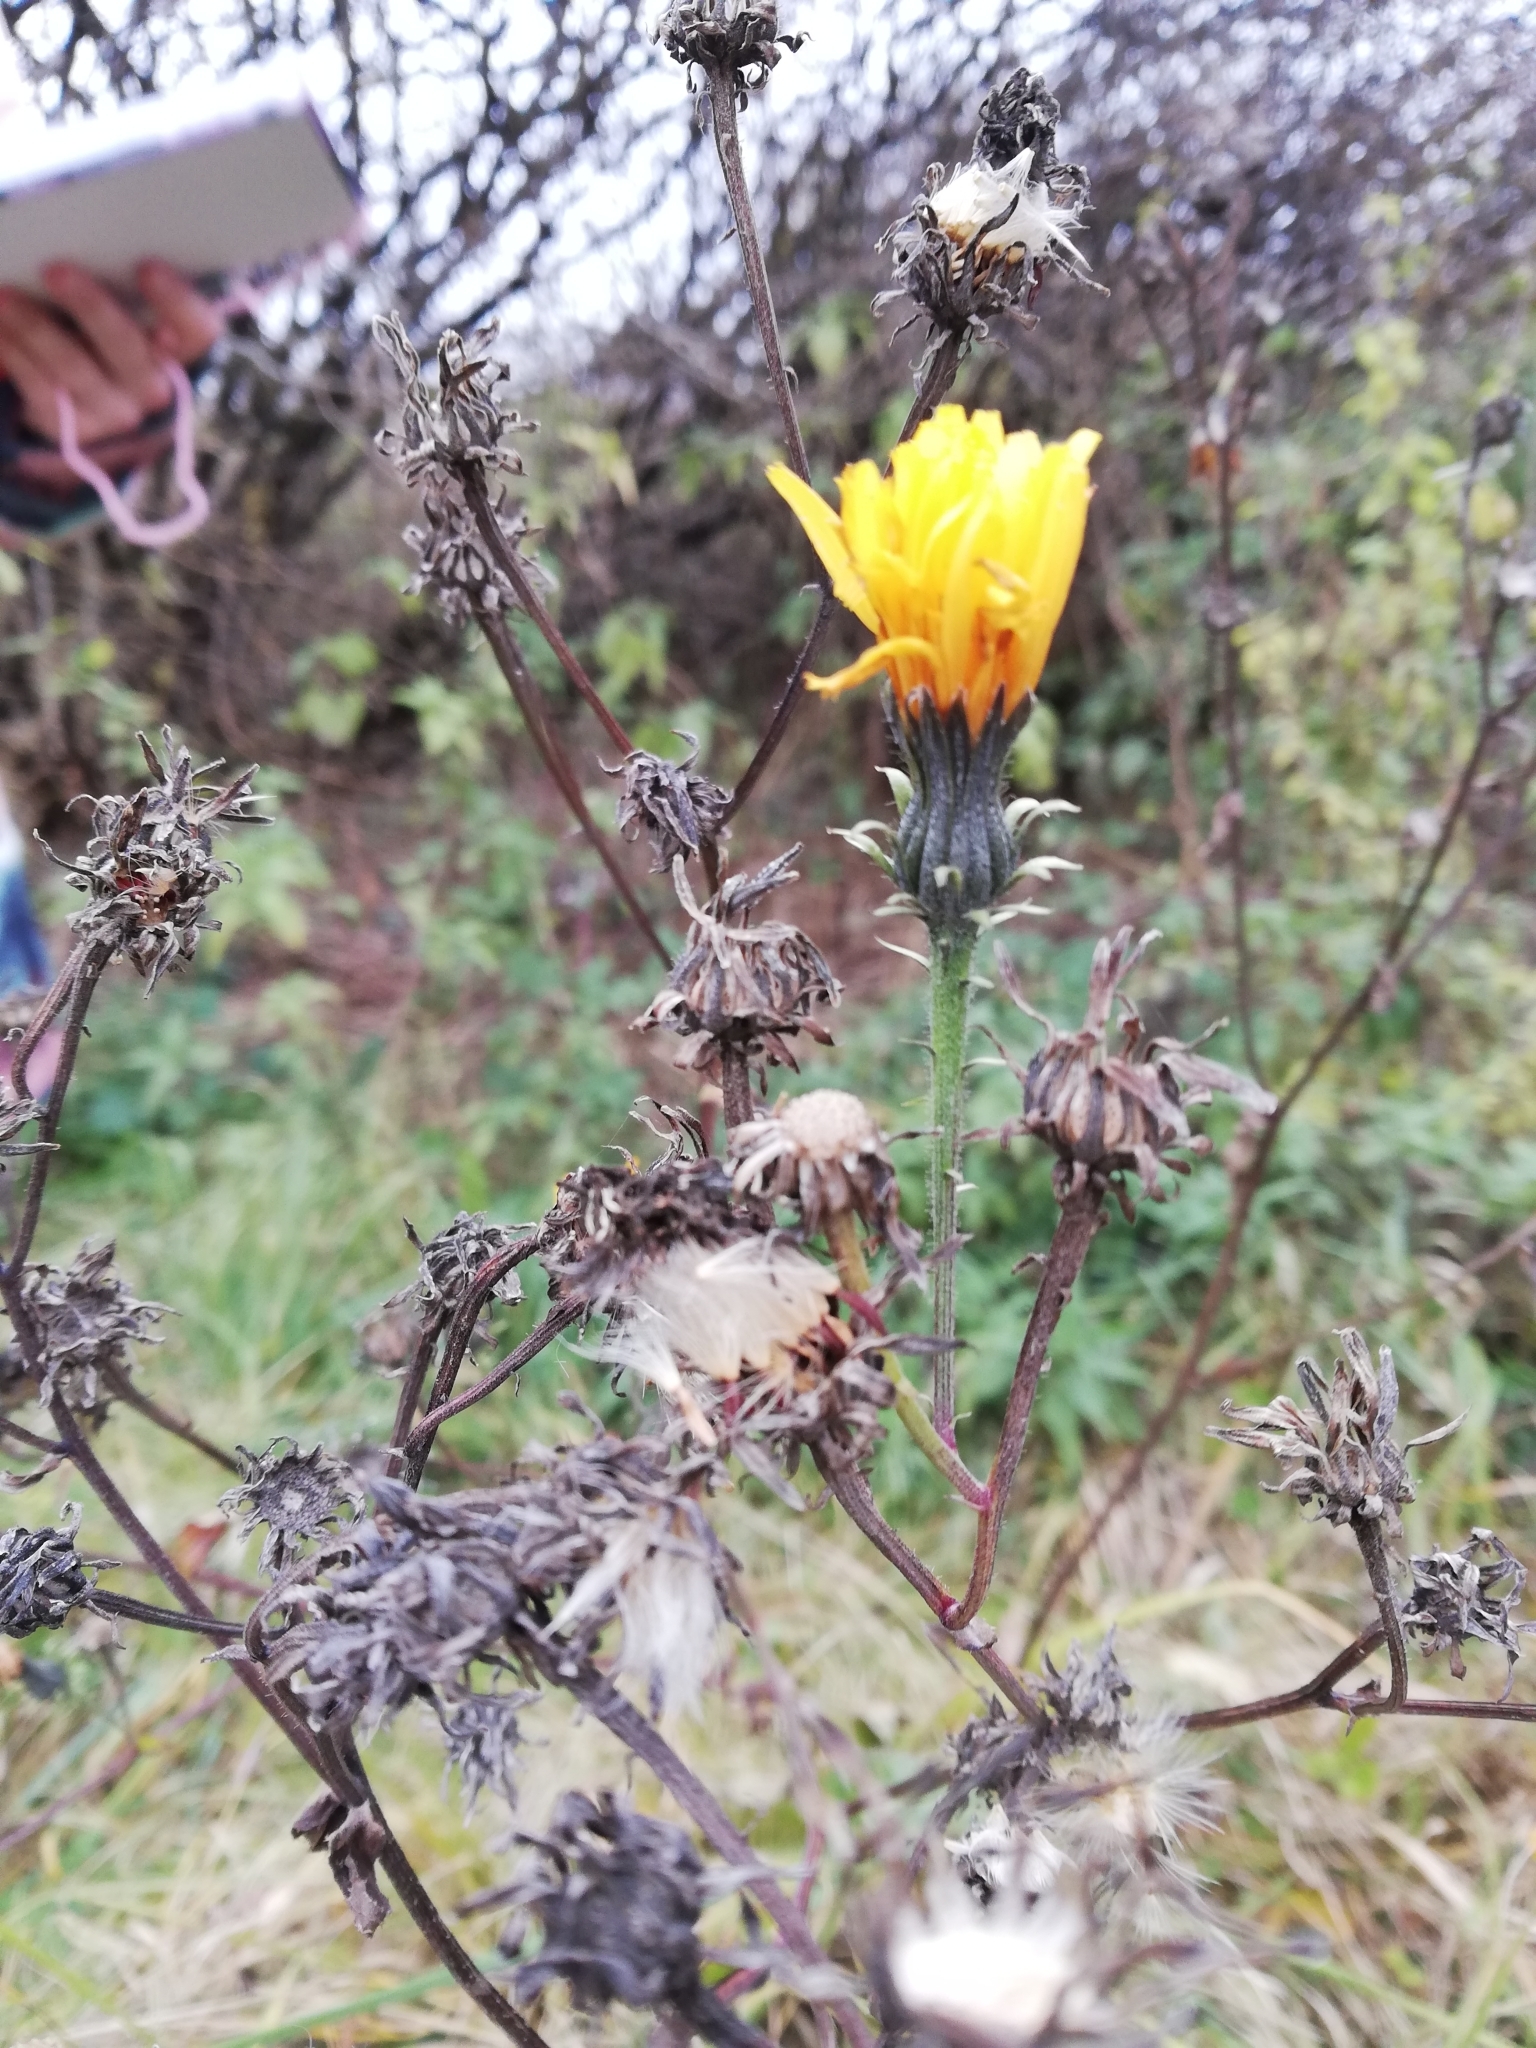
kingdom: Plantae
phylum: Tracheophyta
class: Magnoliopsida
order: Asterales
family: Asteraceae
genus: Picris
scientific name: Picris hieracioides
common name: Hawkweed oxtongue
